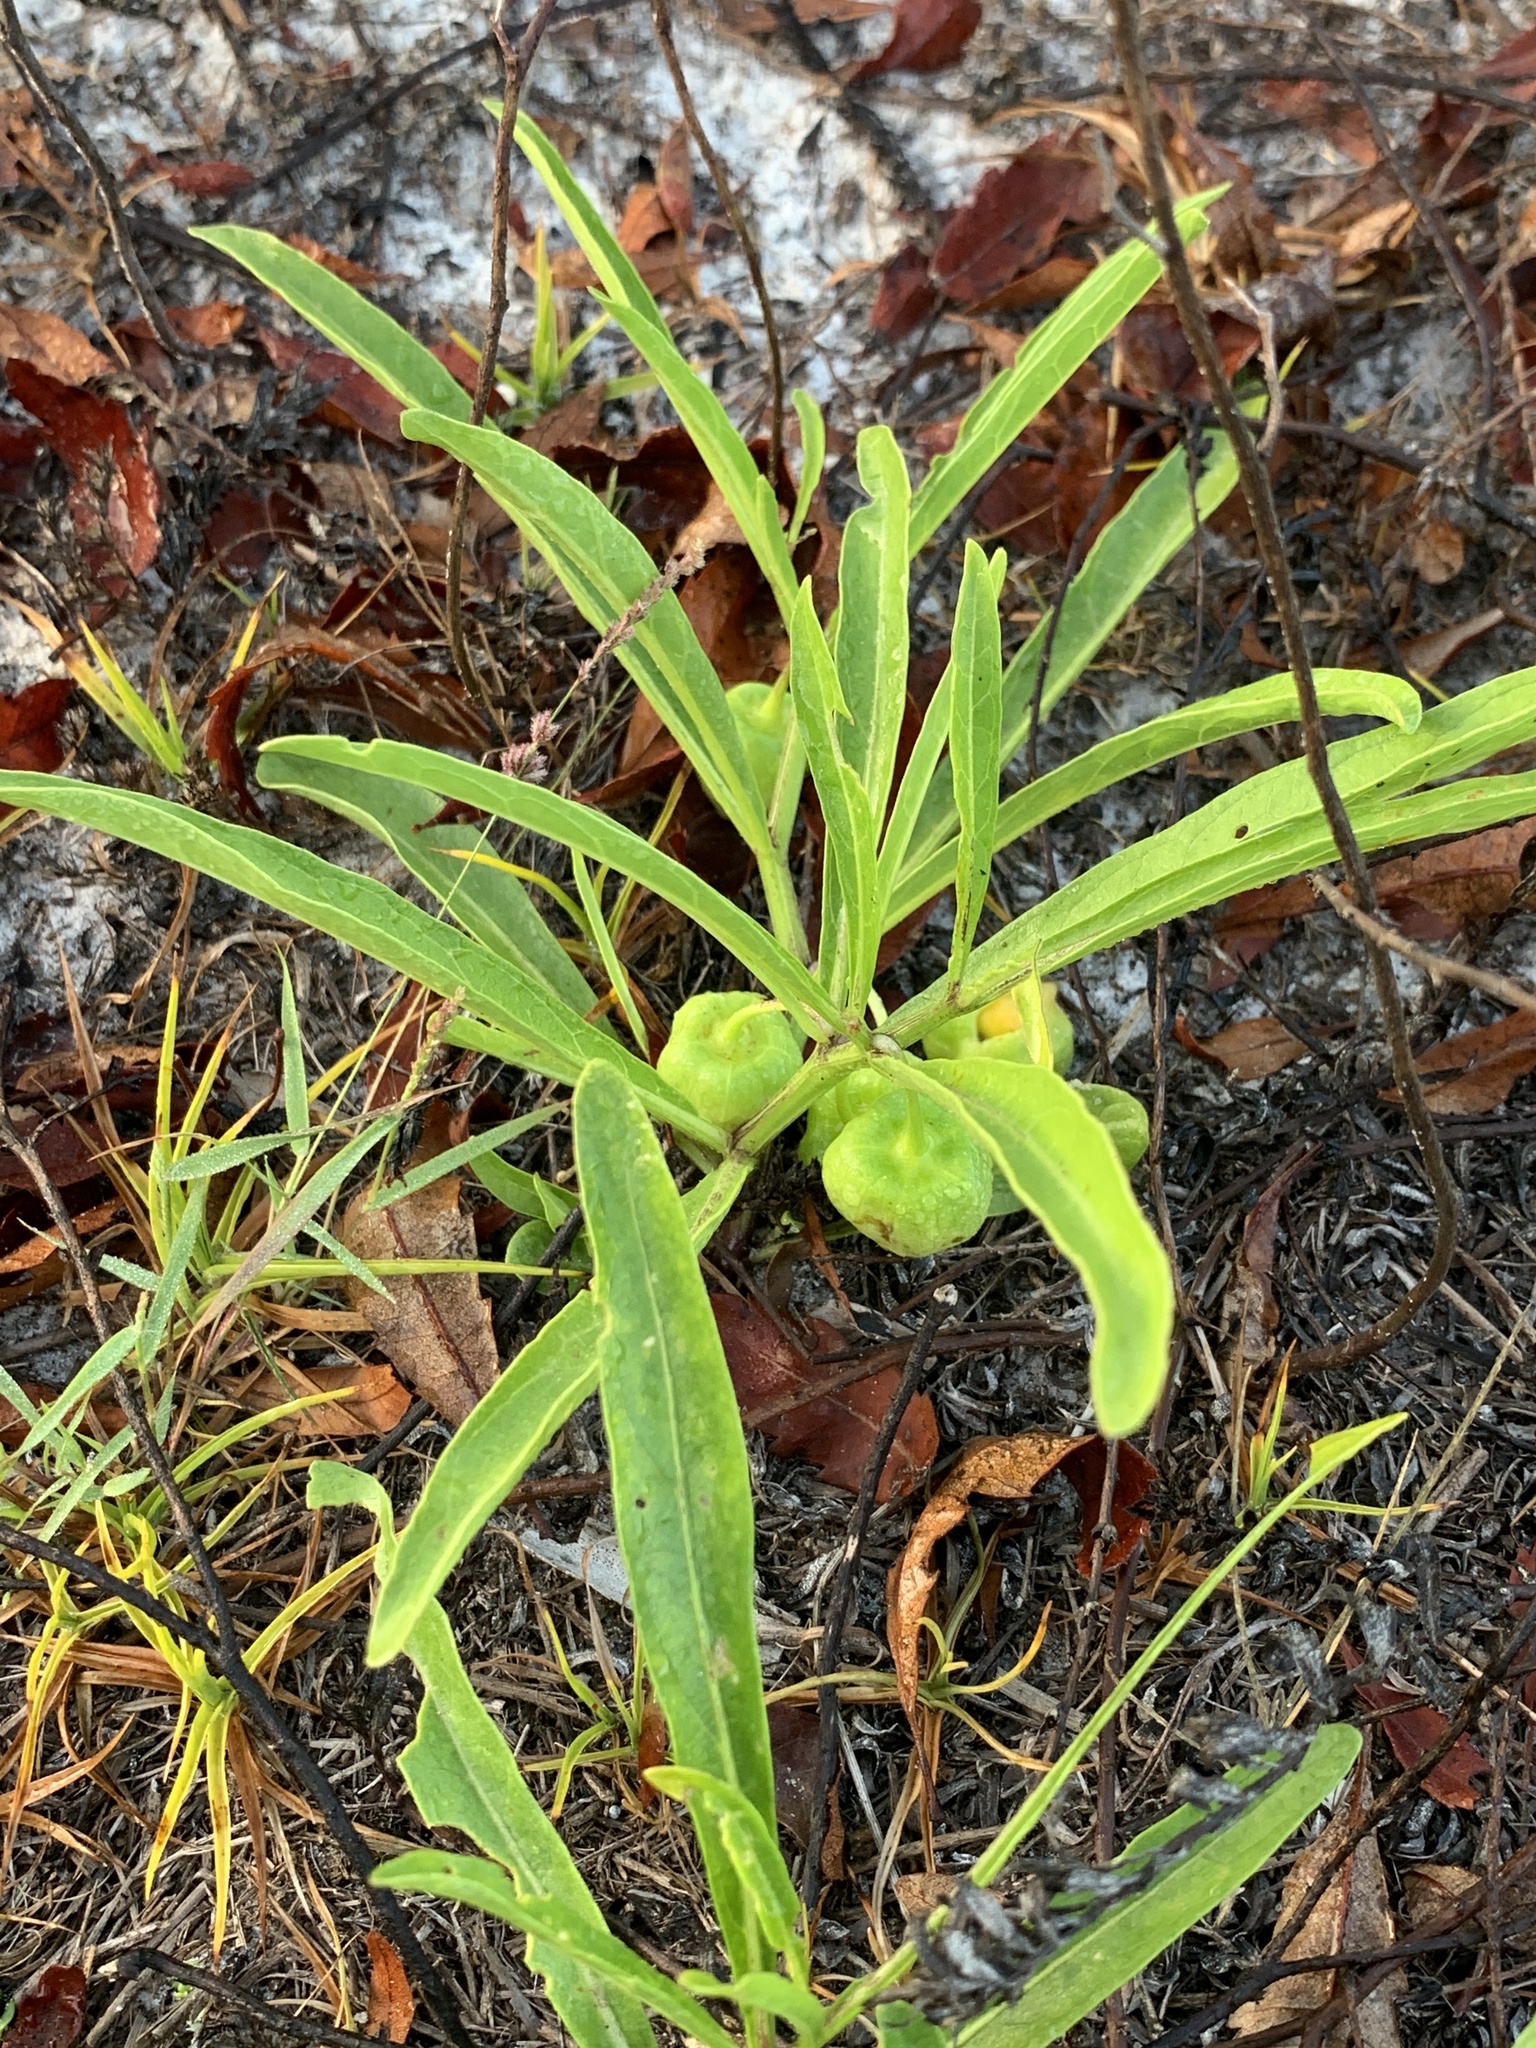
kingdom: Plantae
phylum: Tracheophyta
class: Magnoliopsida
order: Solanales
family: Solanaceae
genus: Physalis
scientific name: Physalis angustifolia
